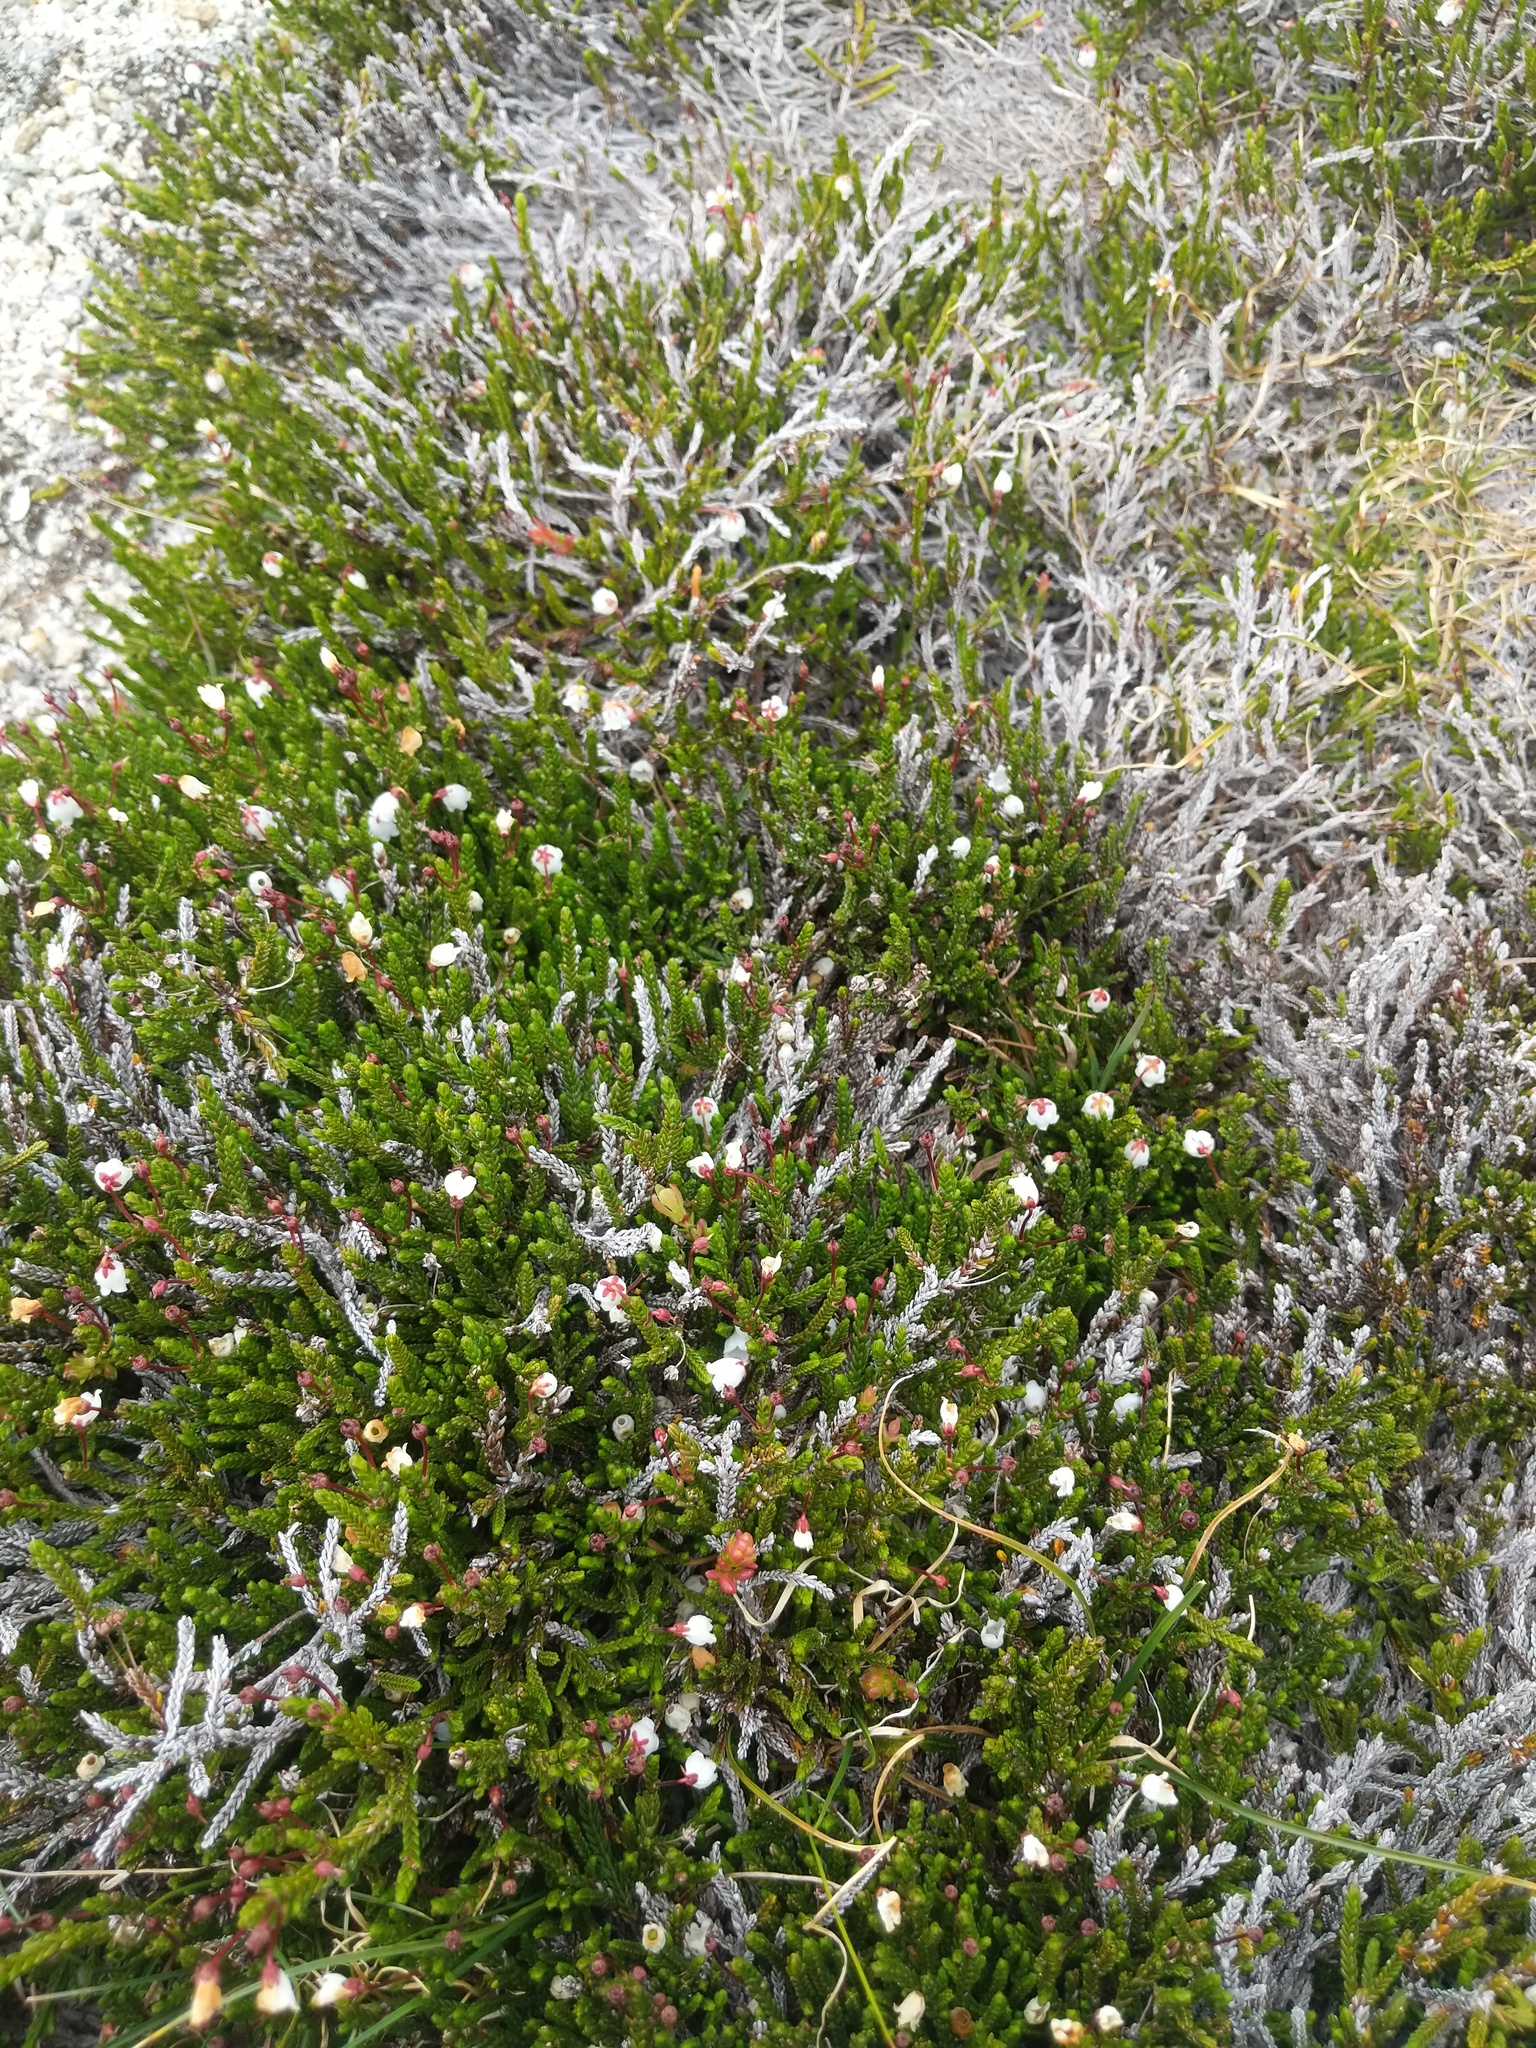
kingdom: Fungi
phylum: Basidiomycota
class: Exobasidiomycetes
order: Exobasidiales
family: Exobasidiaceae
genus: Exobasidium
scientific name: Exobasidium cassiopes
